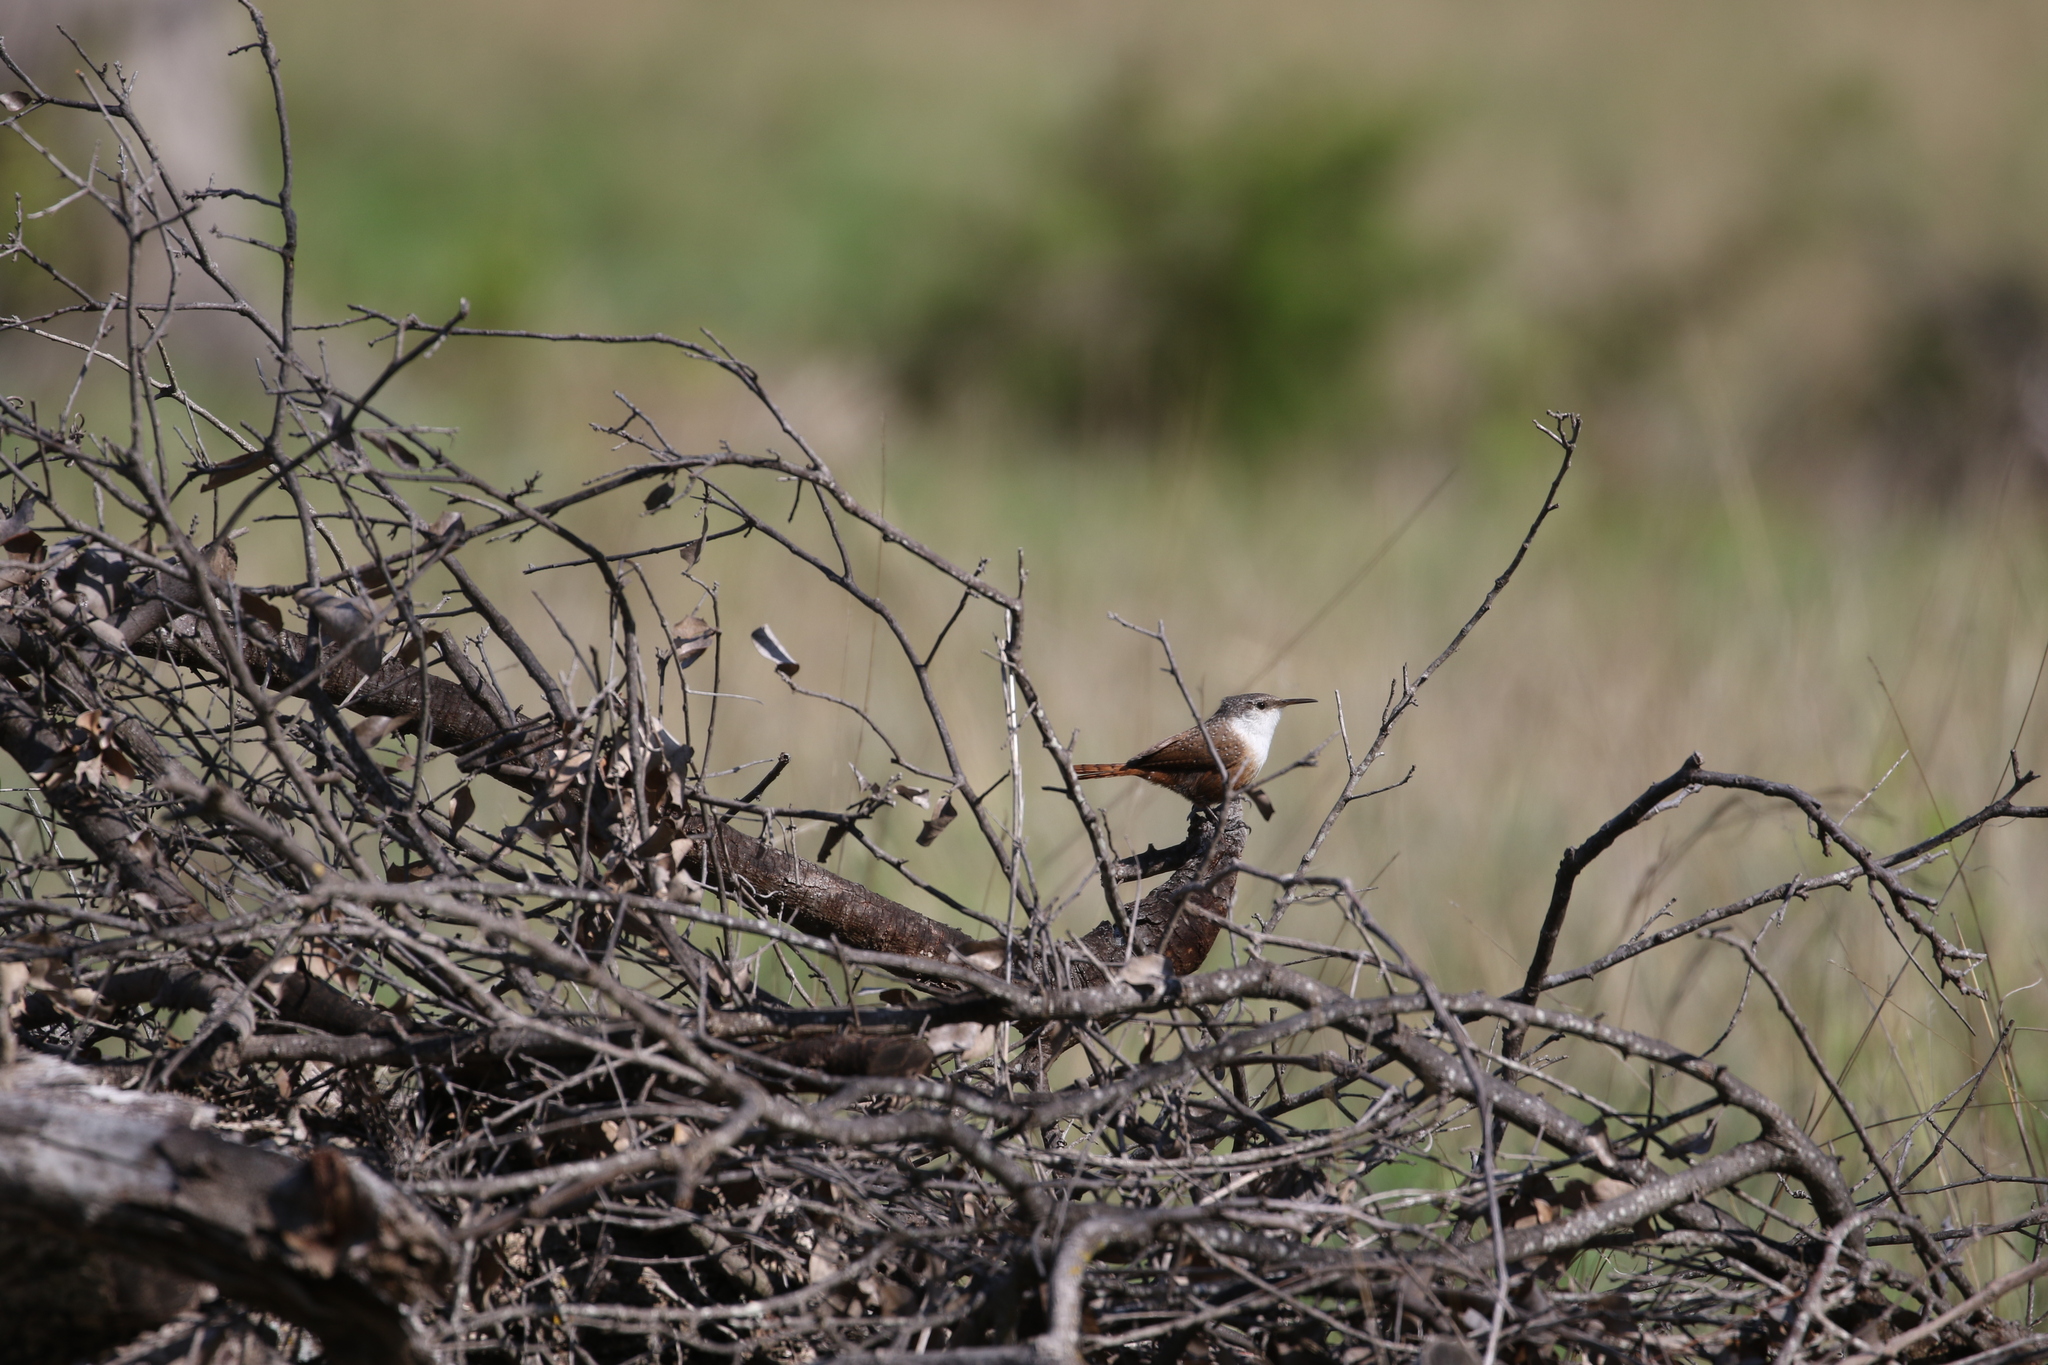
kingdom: Animalia
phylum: Chordata
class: Aves
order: Passeriformes
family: Troglodytidae
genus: Catherpes
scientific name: Catherpes mexicanus
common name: Canyon wren
